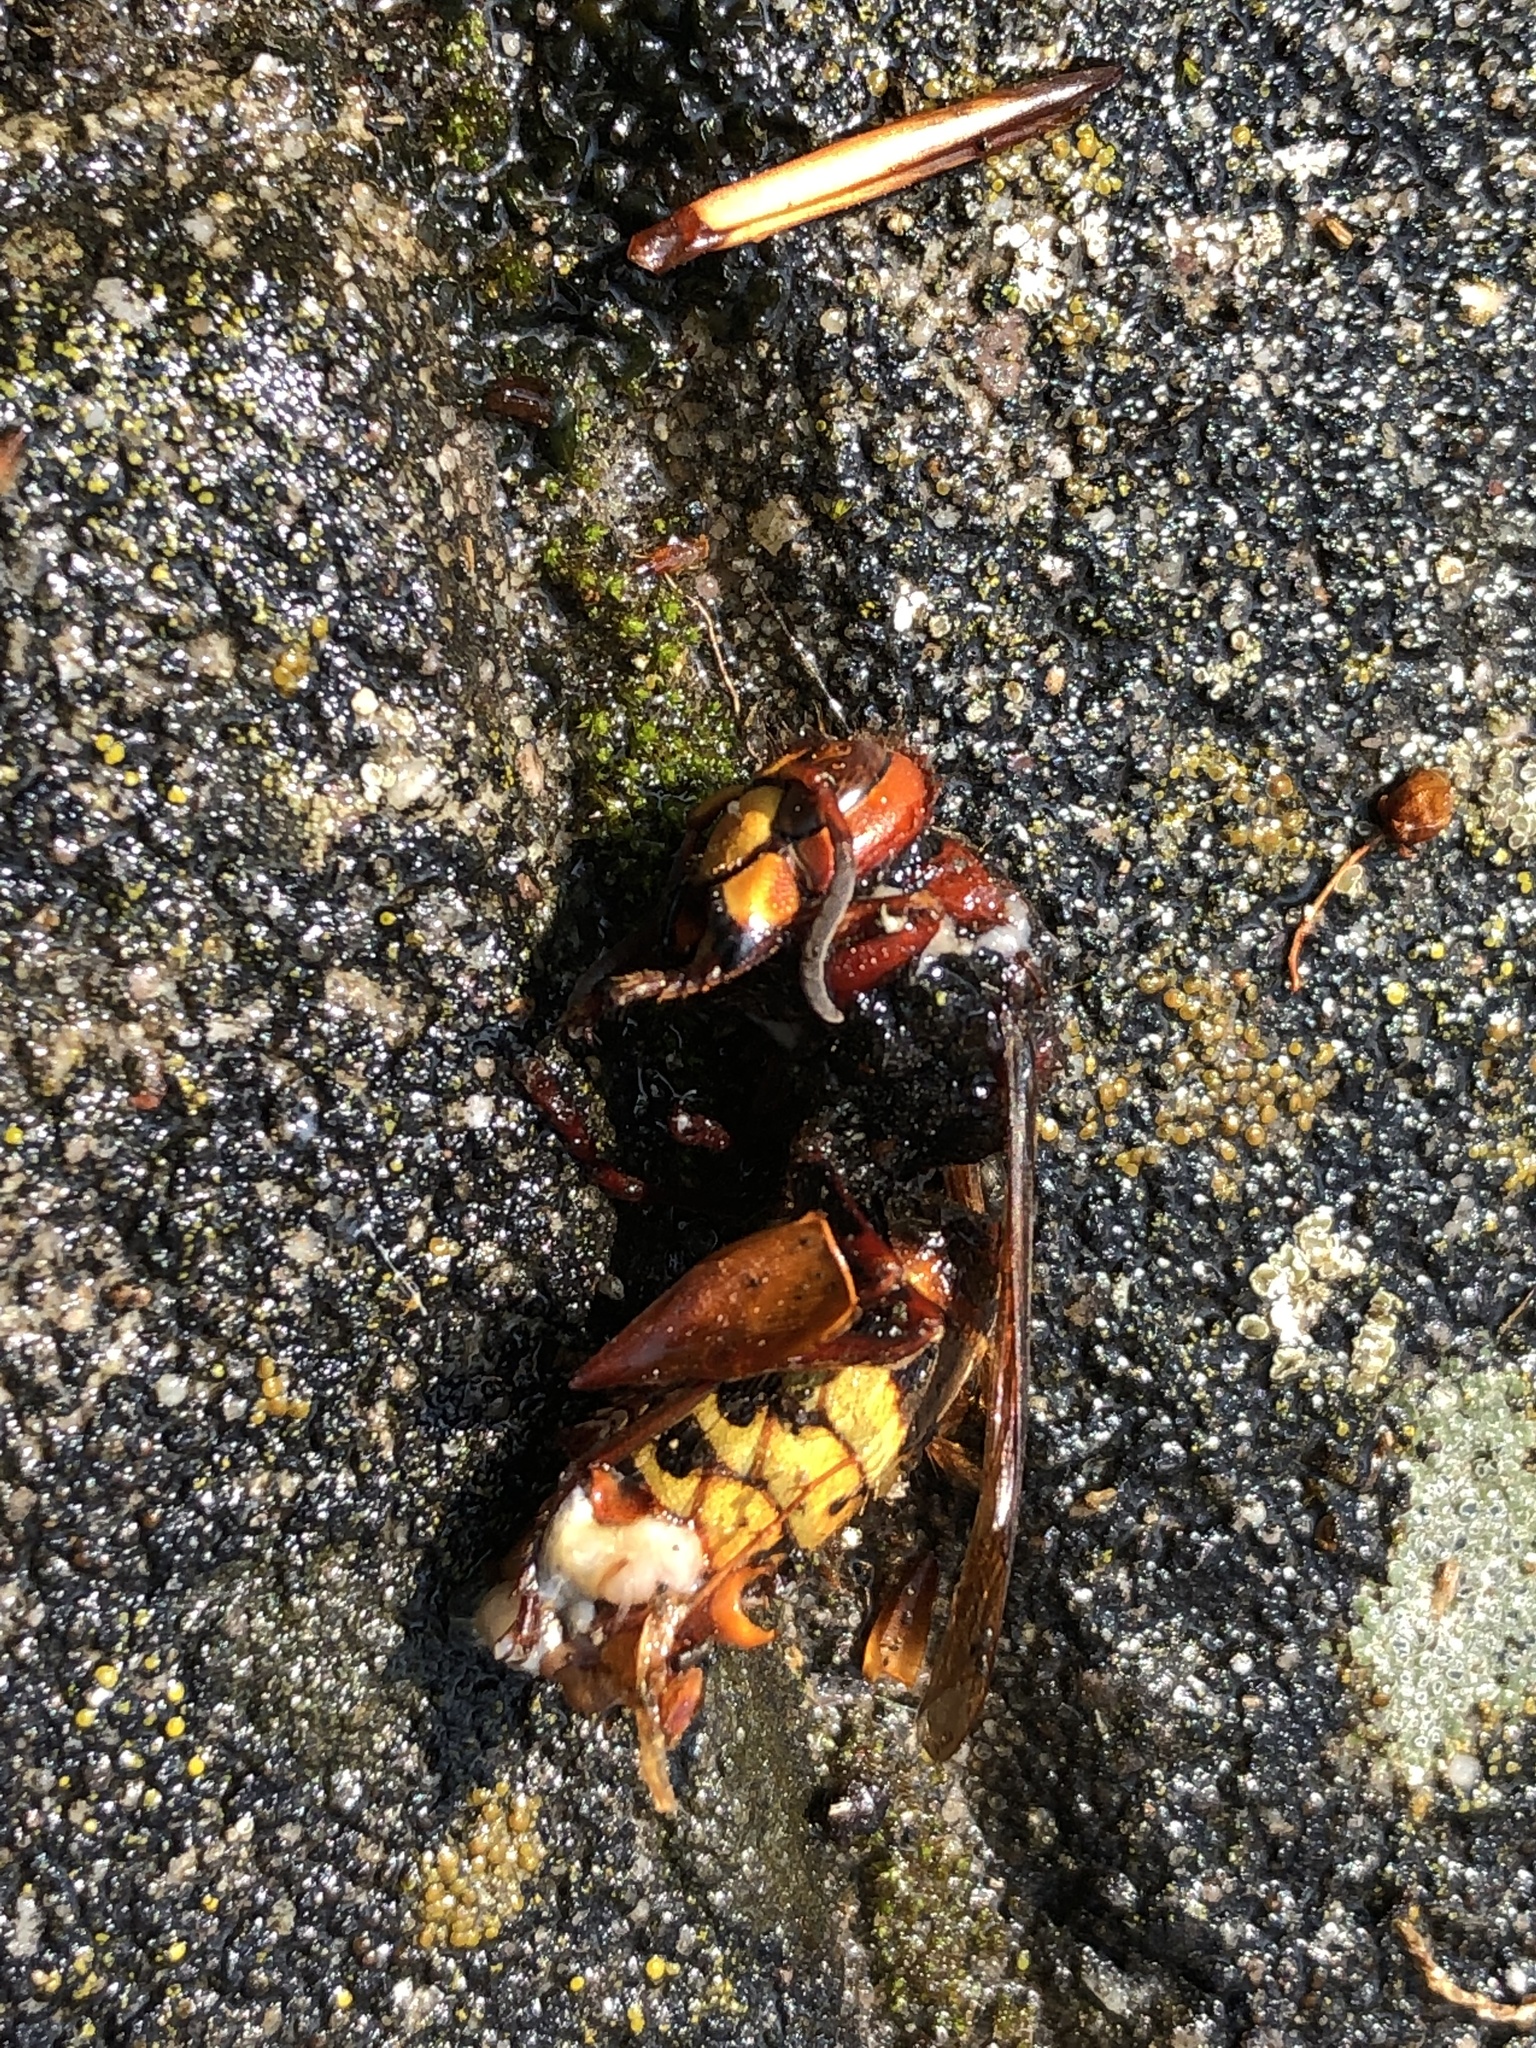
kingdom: Animalia
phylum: Arthropoda
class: Insecta
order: Hymenoptera
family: Vespidae
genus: Vespa
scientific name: Vespa crabro
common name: Hornet
